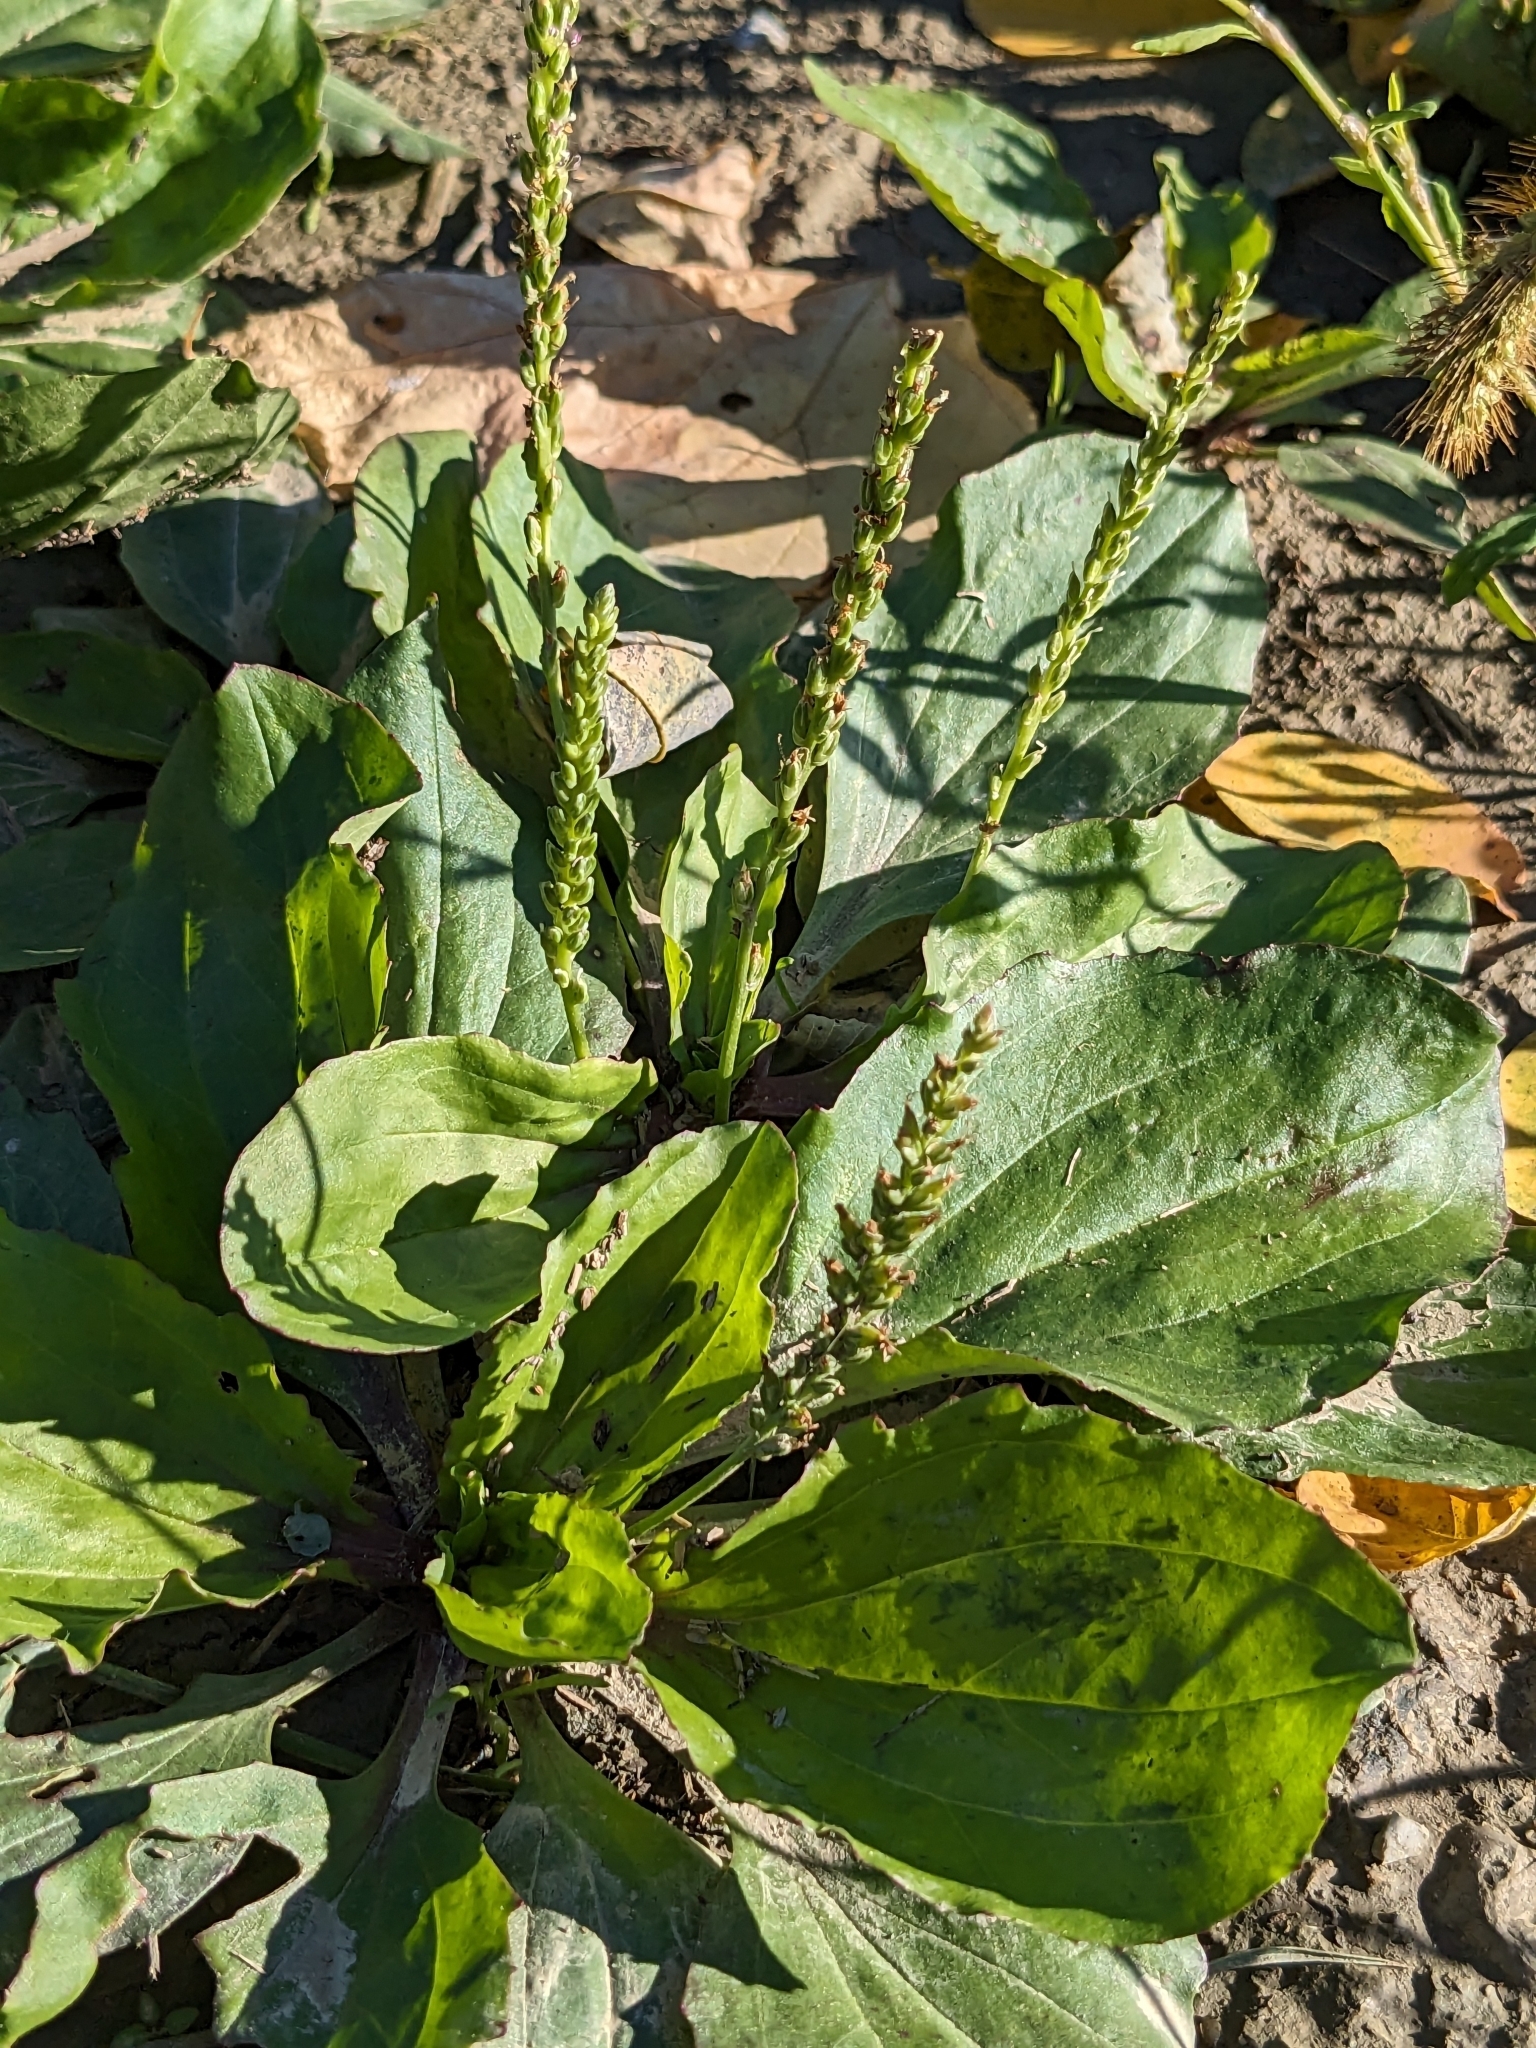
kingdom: Plantae
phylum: Tracheophyta
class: Magnoliopsida
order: Lamiales
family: Plantaginaceae
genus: Plantago
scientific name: Plantago major
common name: Common plantain
